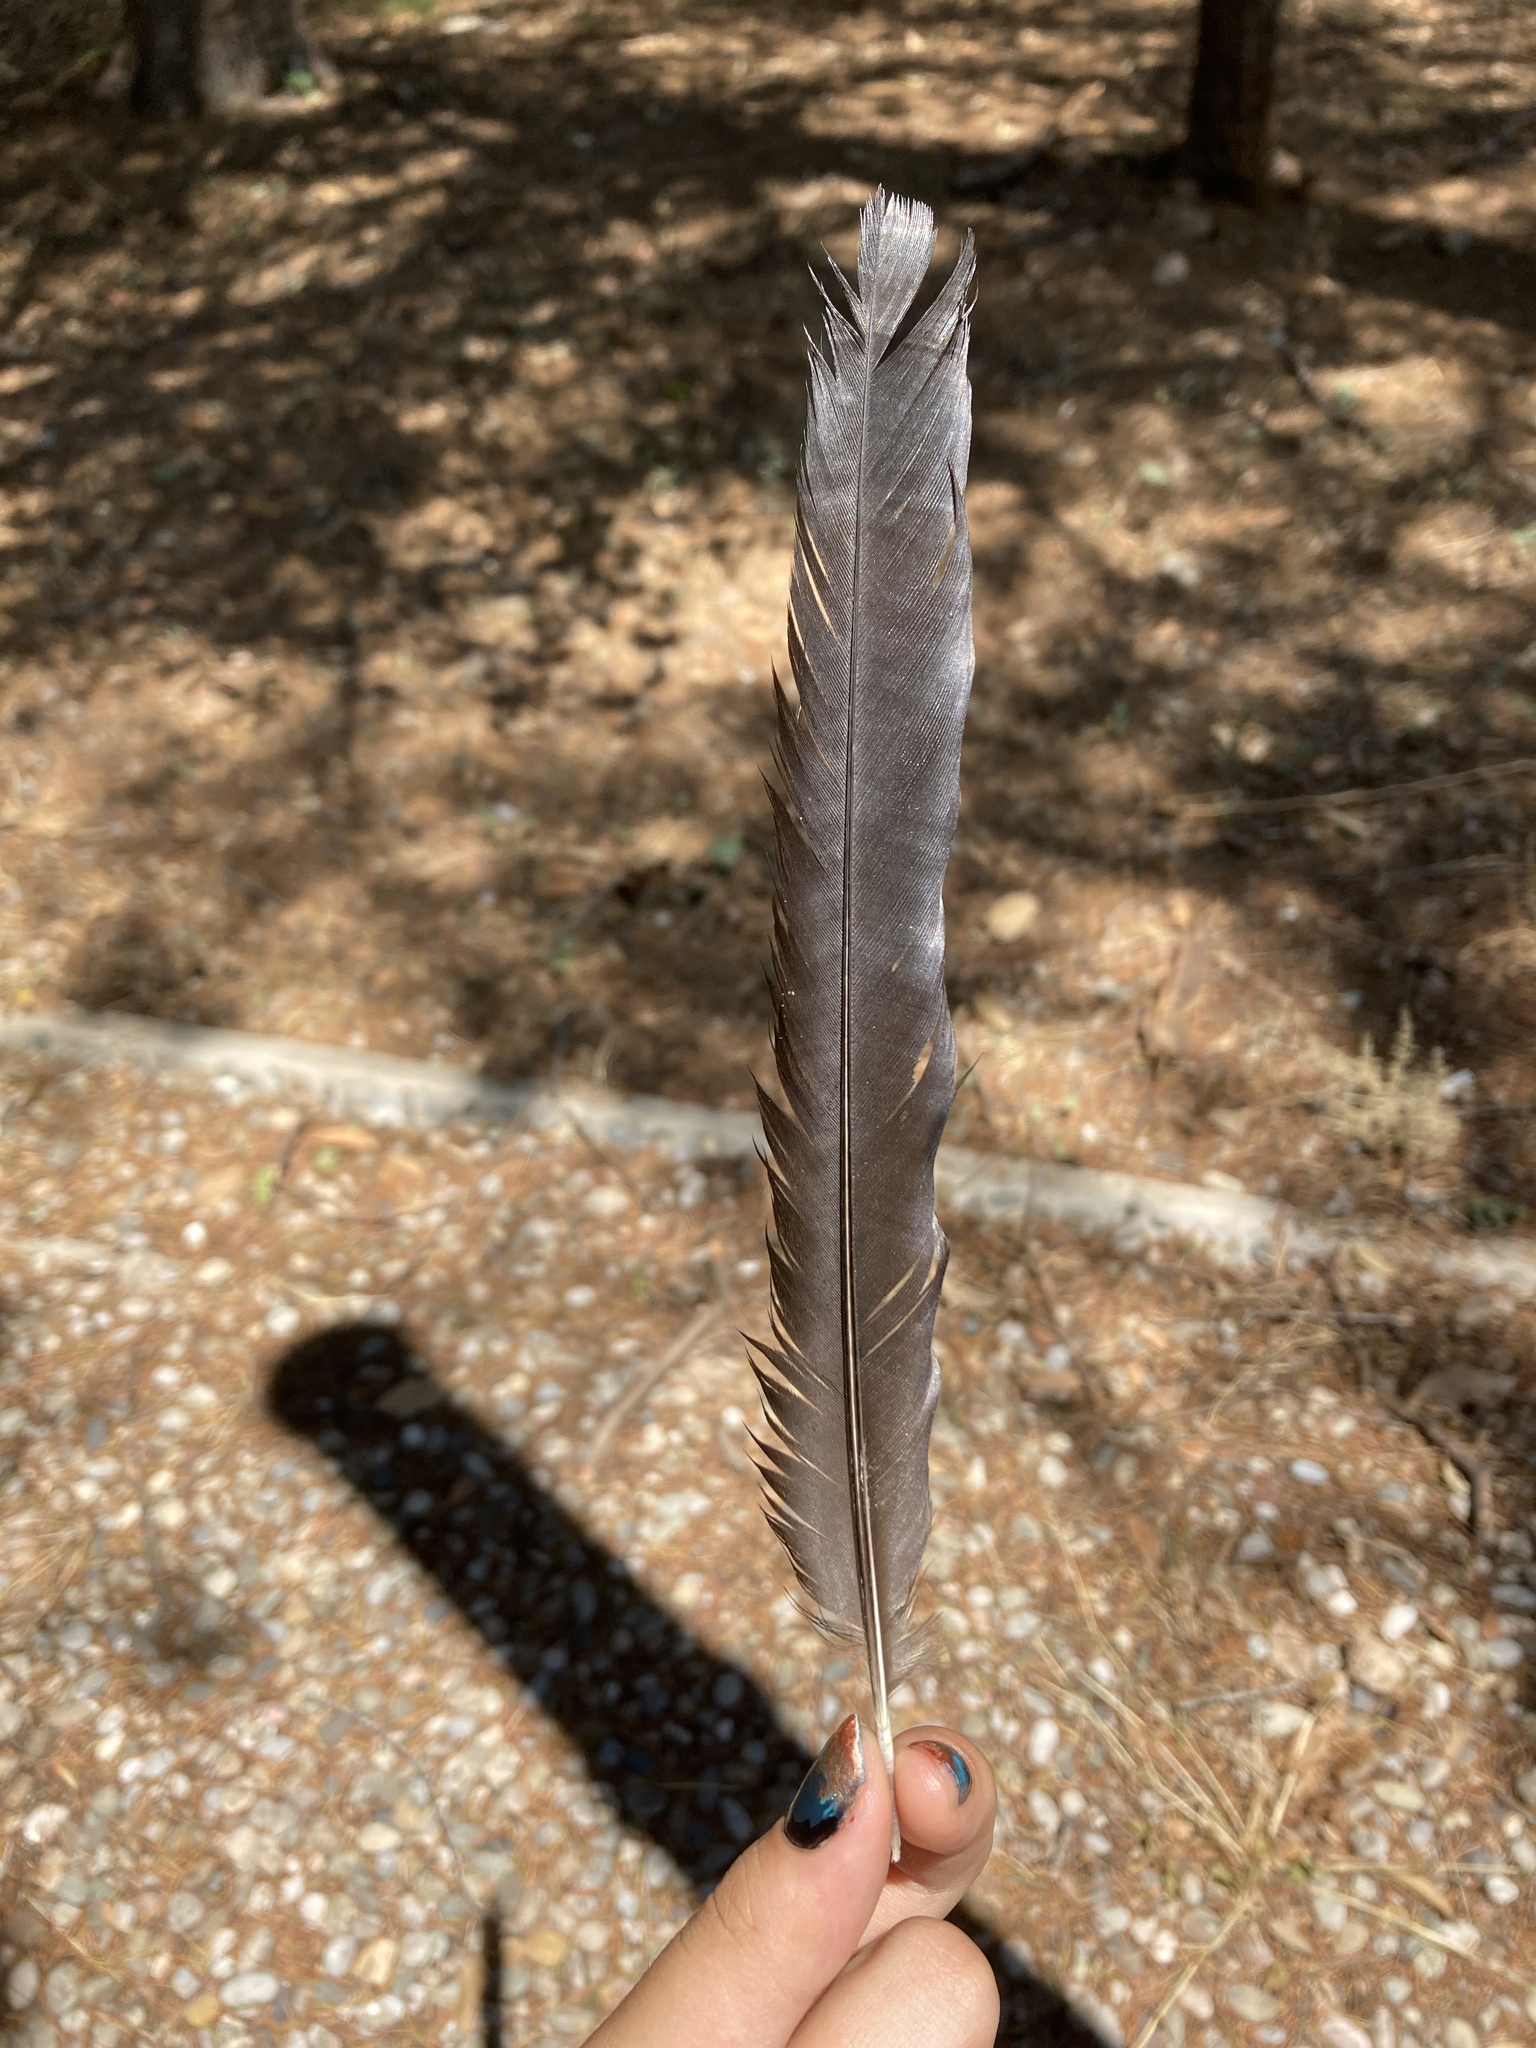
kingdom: Animalia
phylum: Chordata
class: Aves
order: Passeriformes
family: Corvidae
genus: Pica
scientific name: Pica pica
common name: Eurasian magpie
